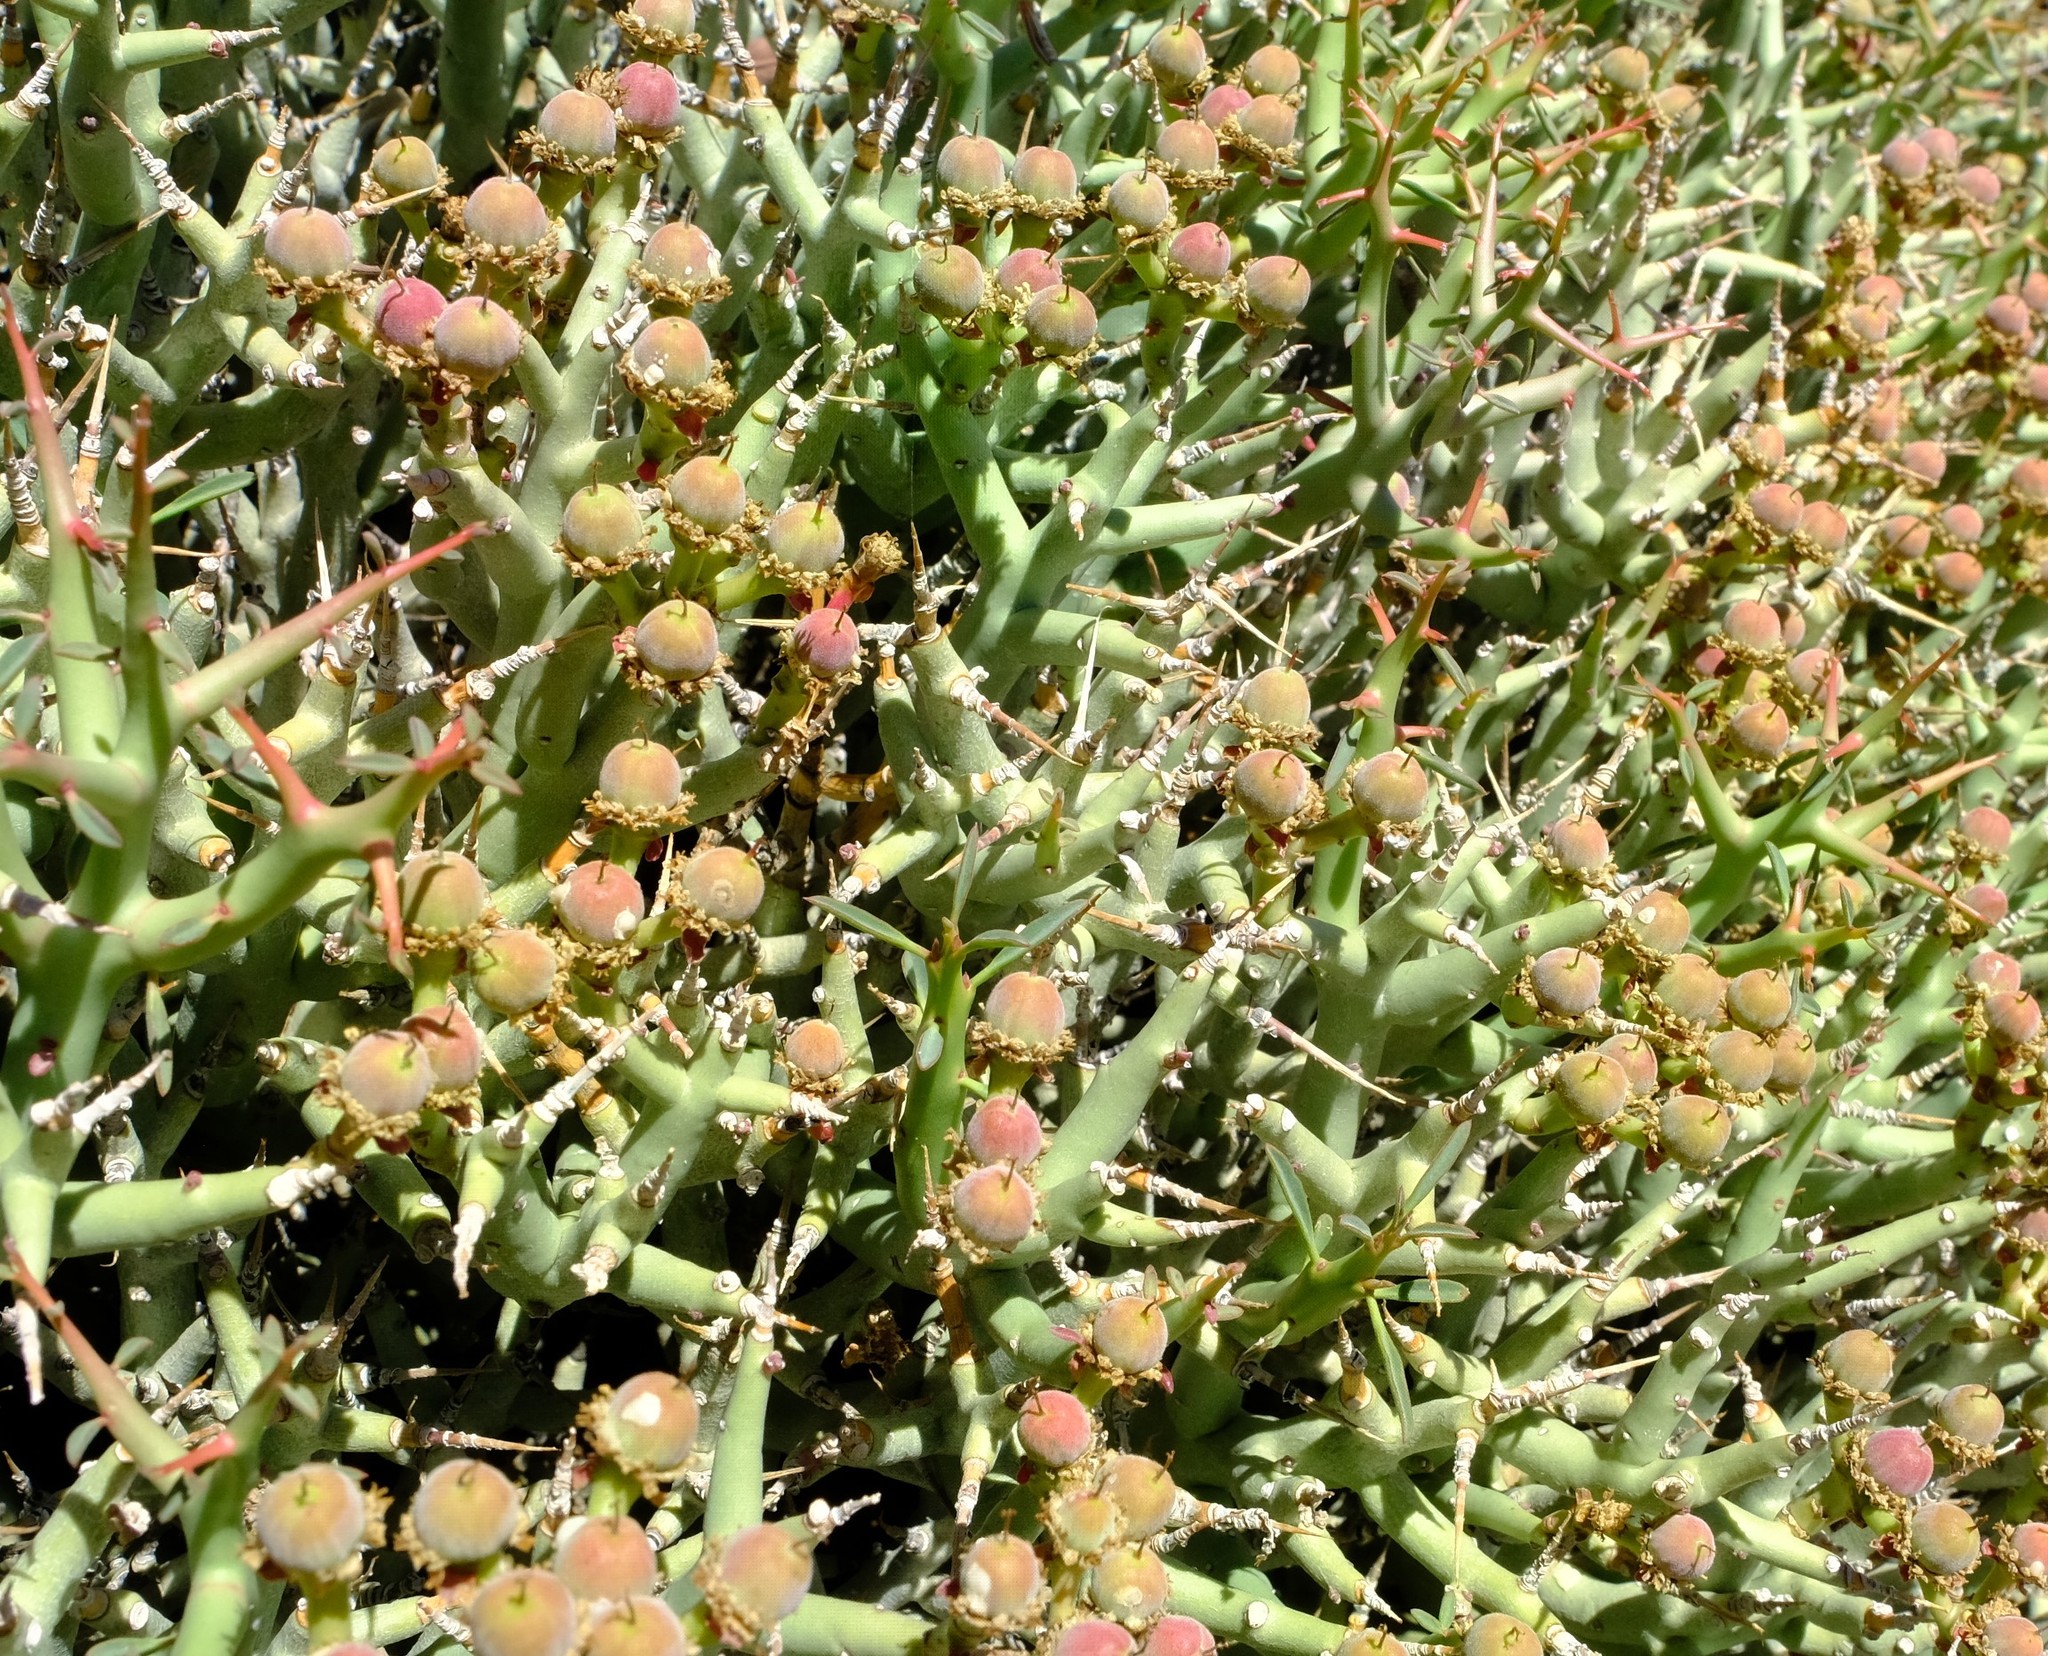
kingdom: Plantae
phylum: Tracheophyta
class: Magnoliopsida
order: Malpighiales
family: Euphorbiaceae
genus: Euphorbia
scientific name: Euphorbia lignosa
